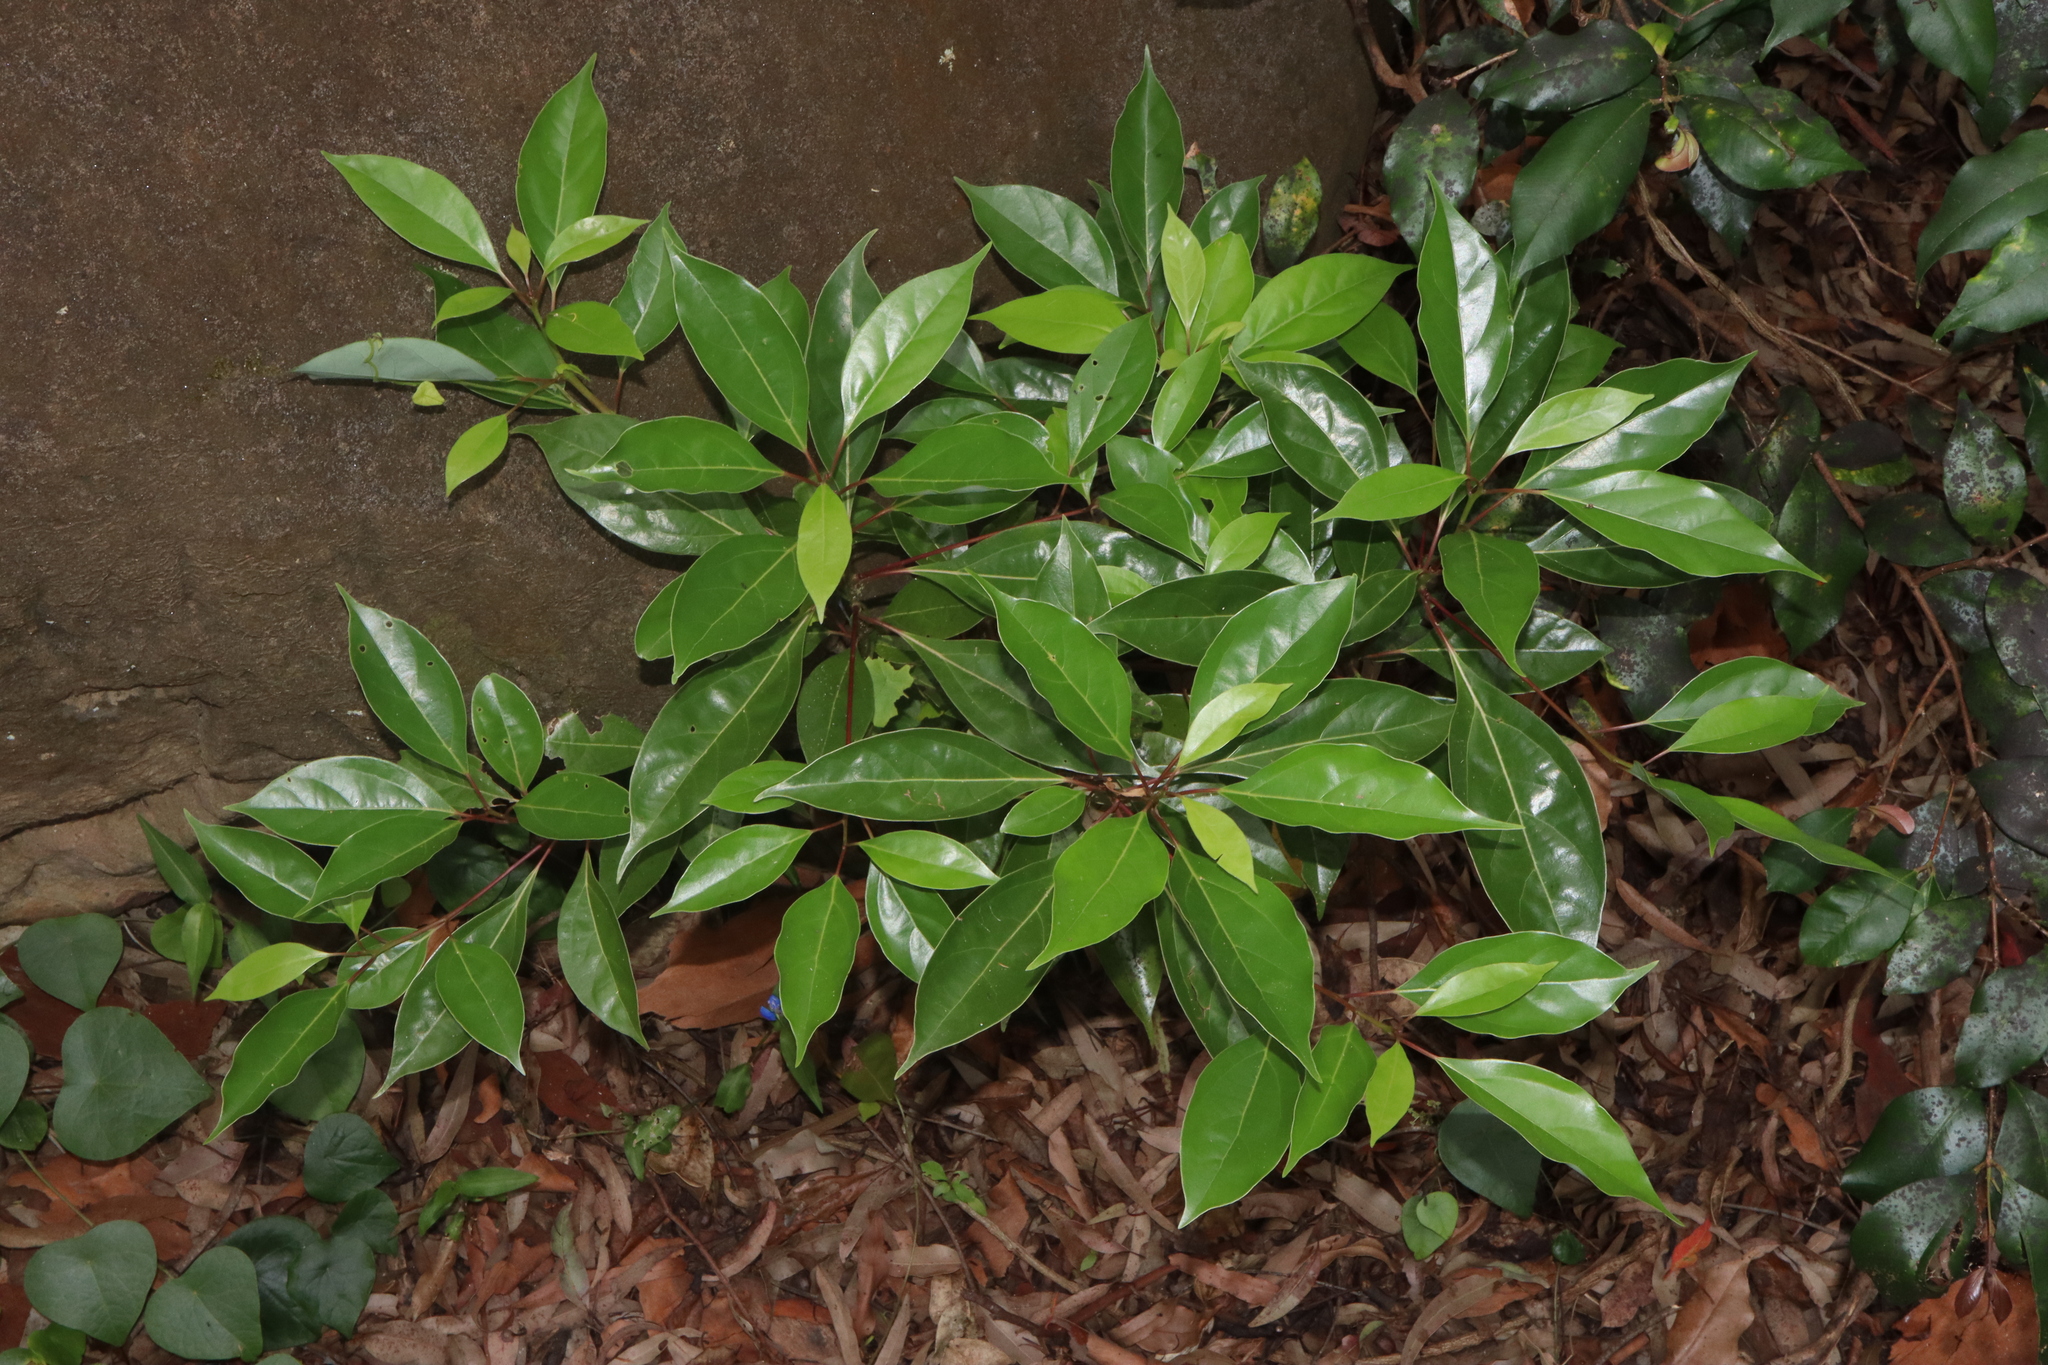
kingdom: Plantae
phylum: Tracheophyta
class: Magnoliopsida
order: Laurales
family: Lauraceae
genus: Cinnamomum
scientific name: Cinnamomum camphora
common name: Camphortree
